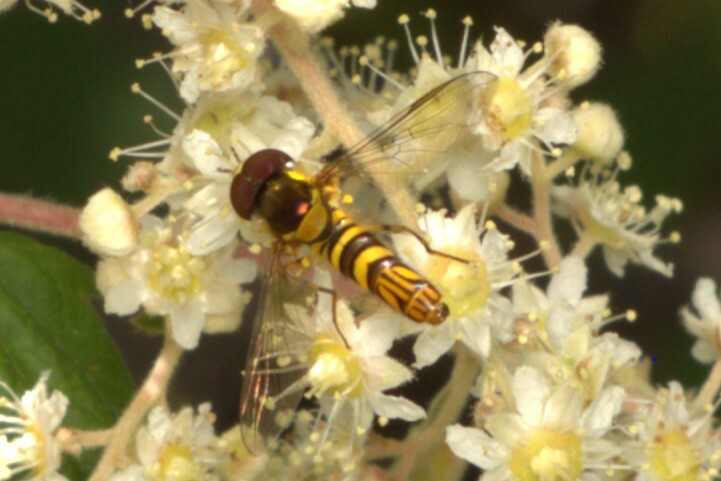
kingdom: Animalia
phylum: Arthropoda
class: Insecta
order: Diptera
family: Syrphidae
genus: Allograpta
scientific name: Allograpta obliqua
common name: Common oblique syrphid
